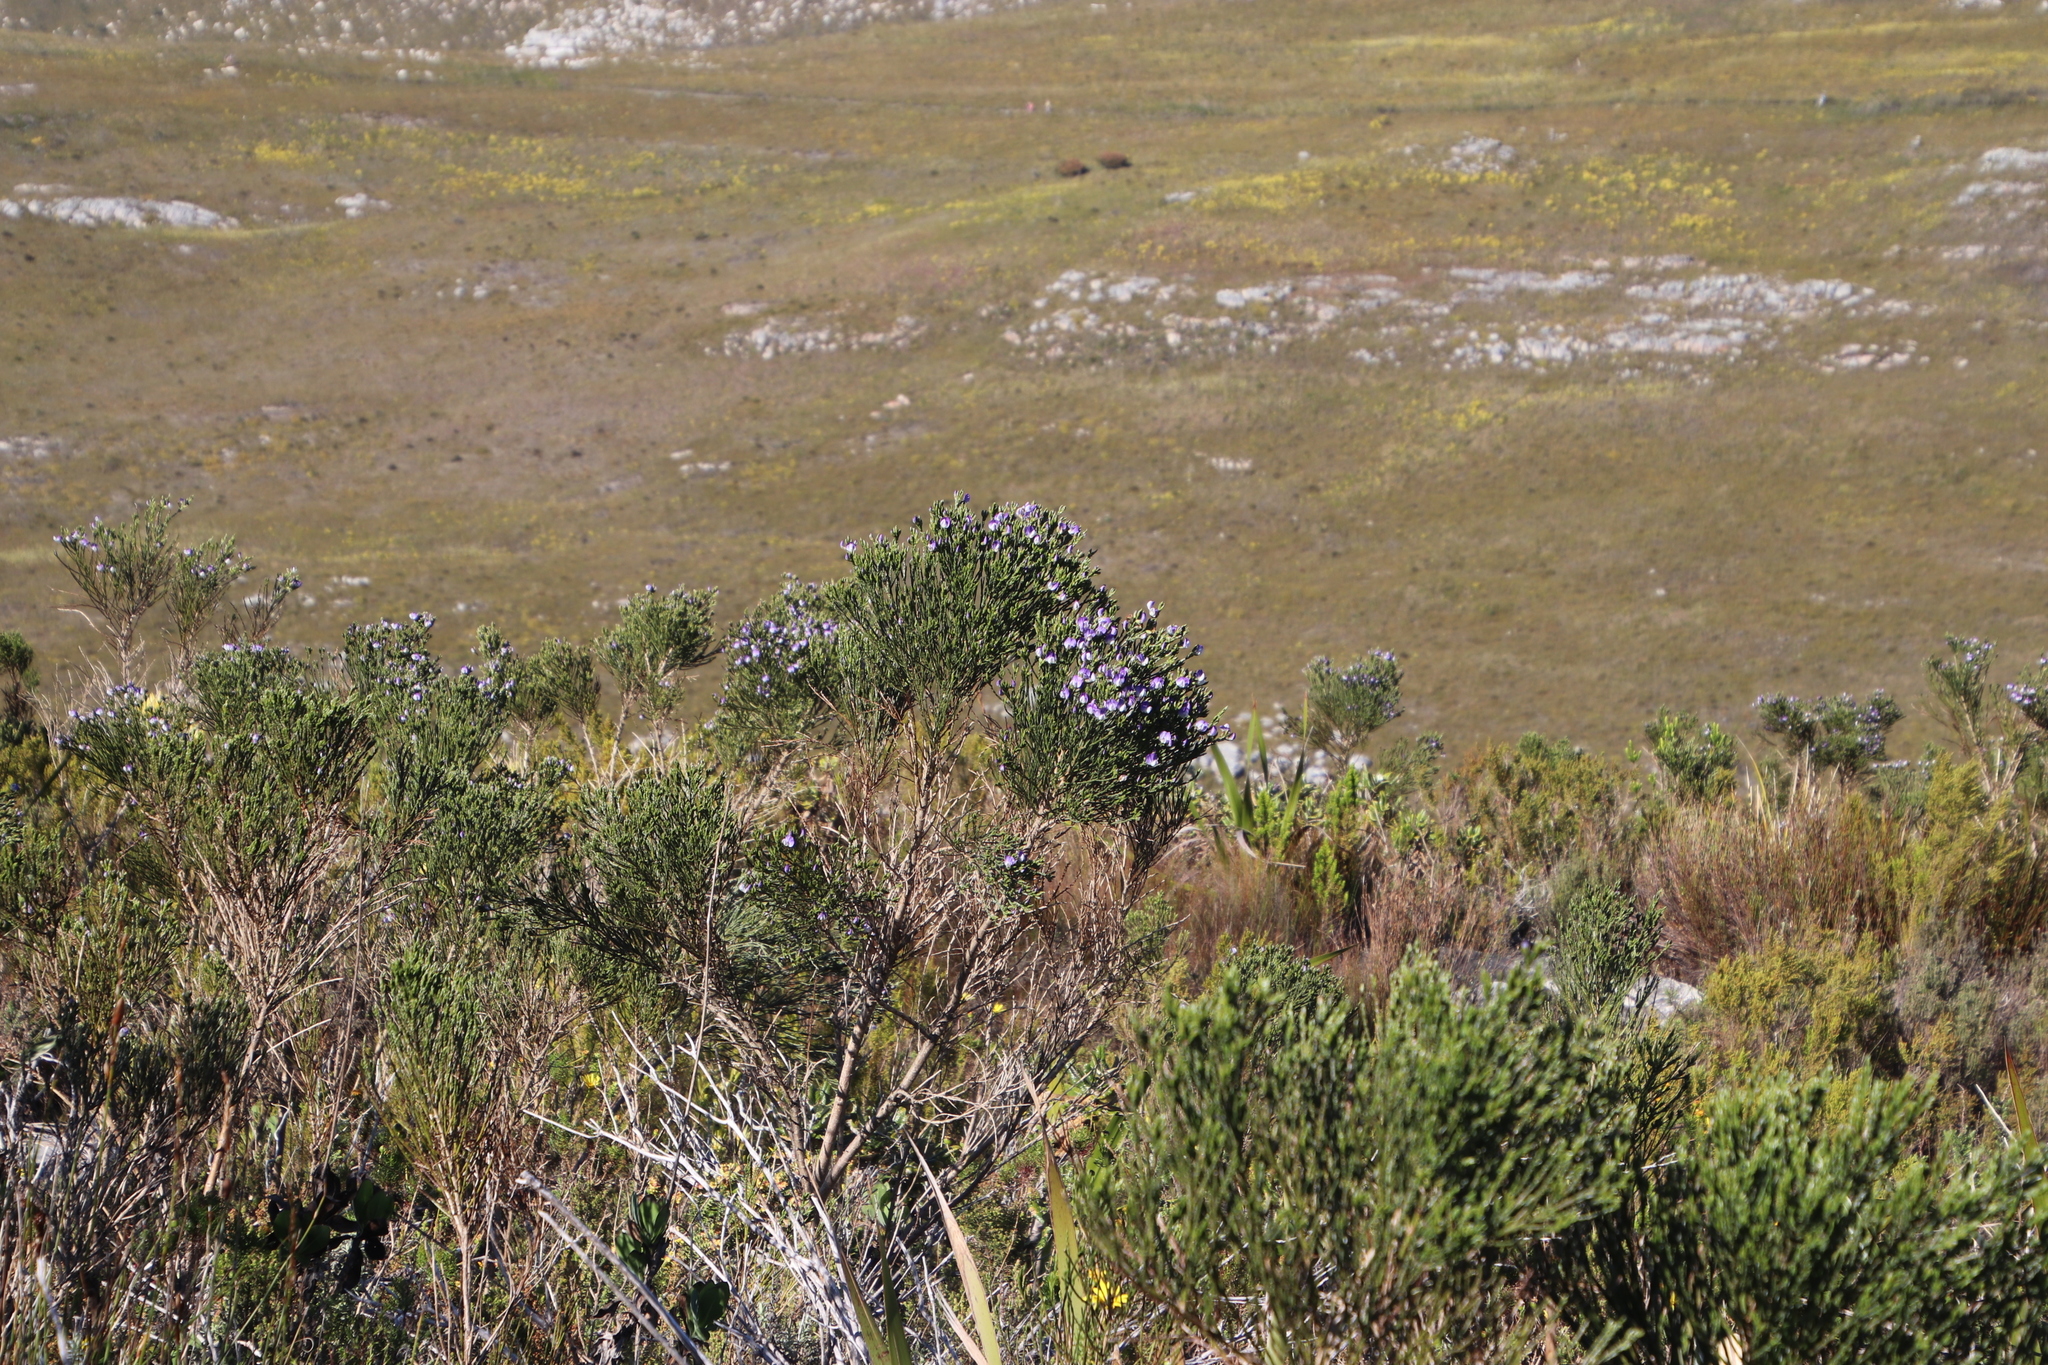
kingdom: Plantae
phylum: Tracheophyta
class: Magnoliopsida
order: Fabales
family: Fabaceae
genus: Psoralea
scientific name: Psoralea congesta
